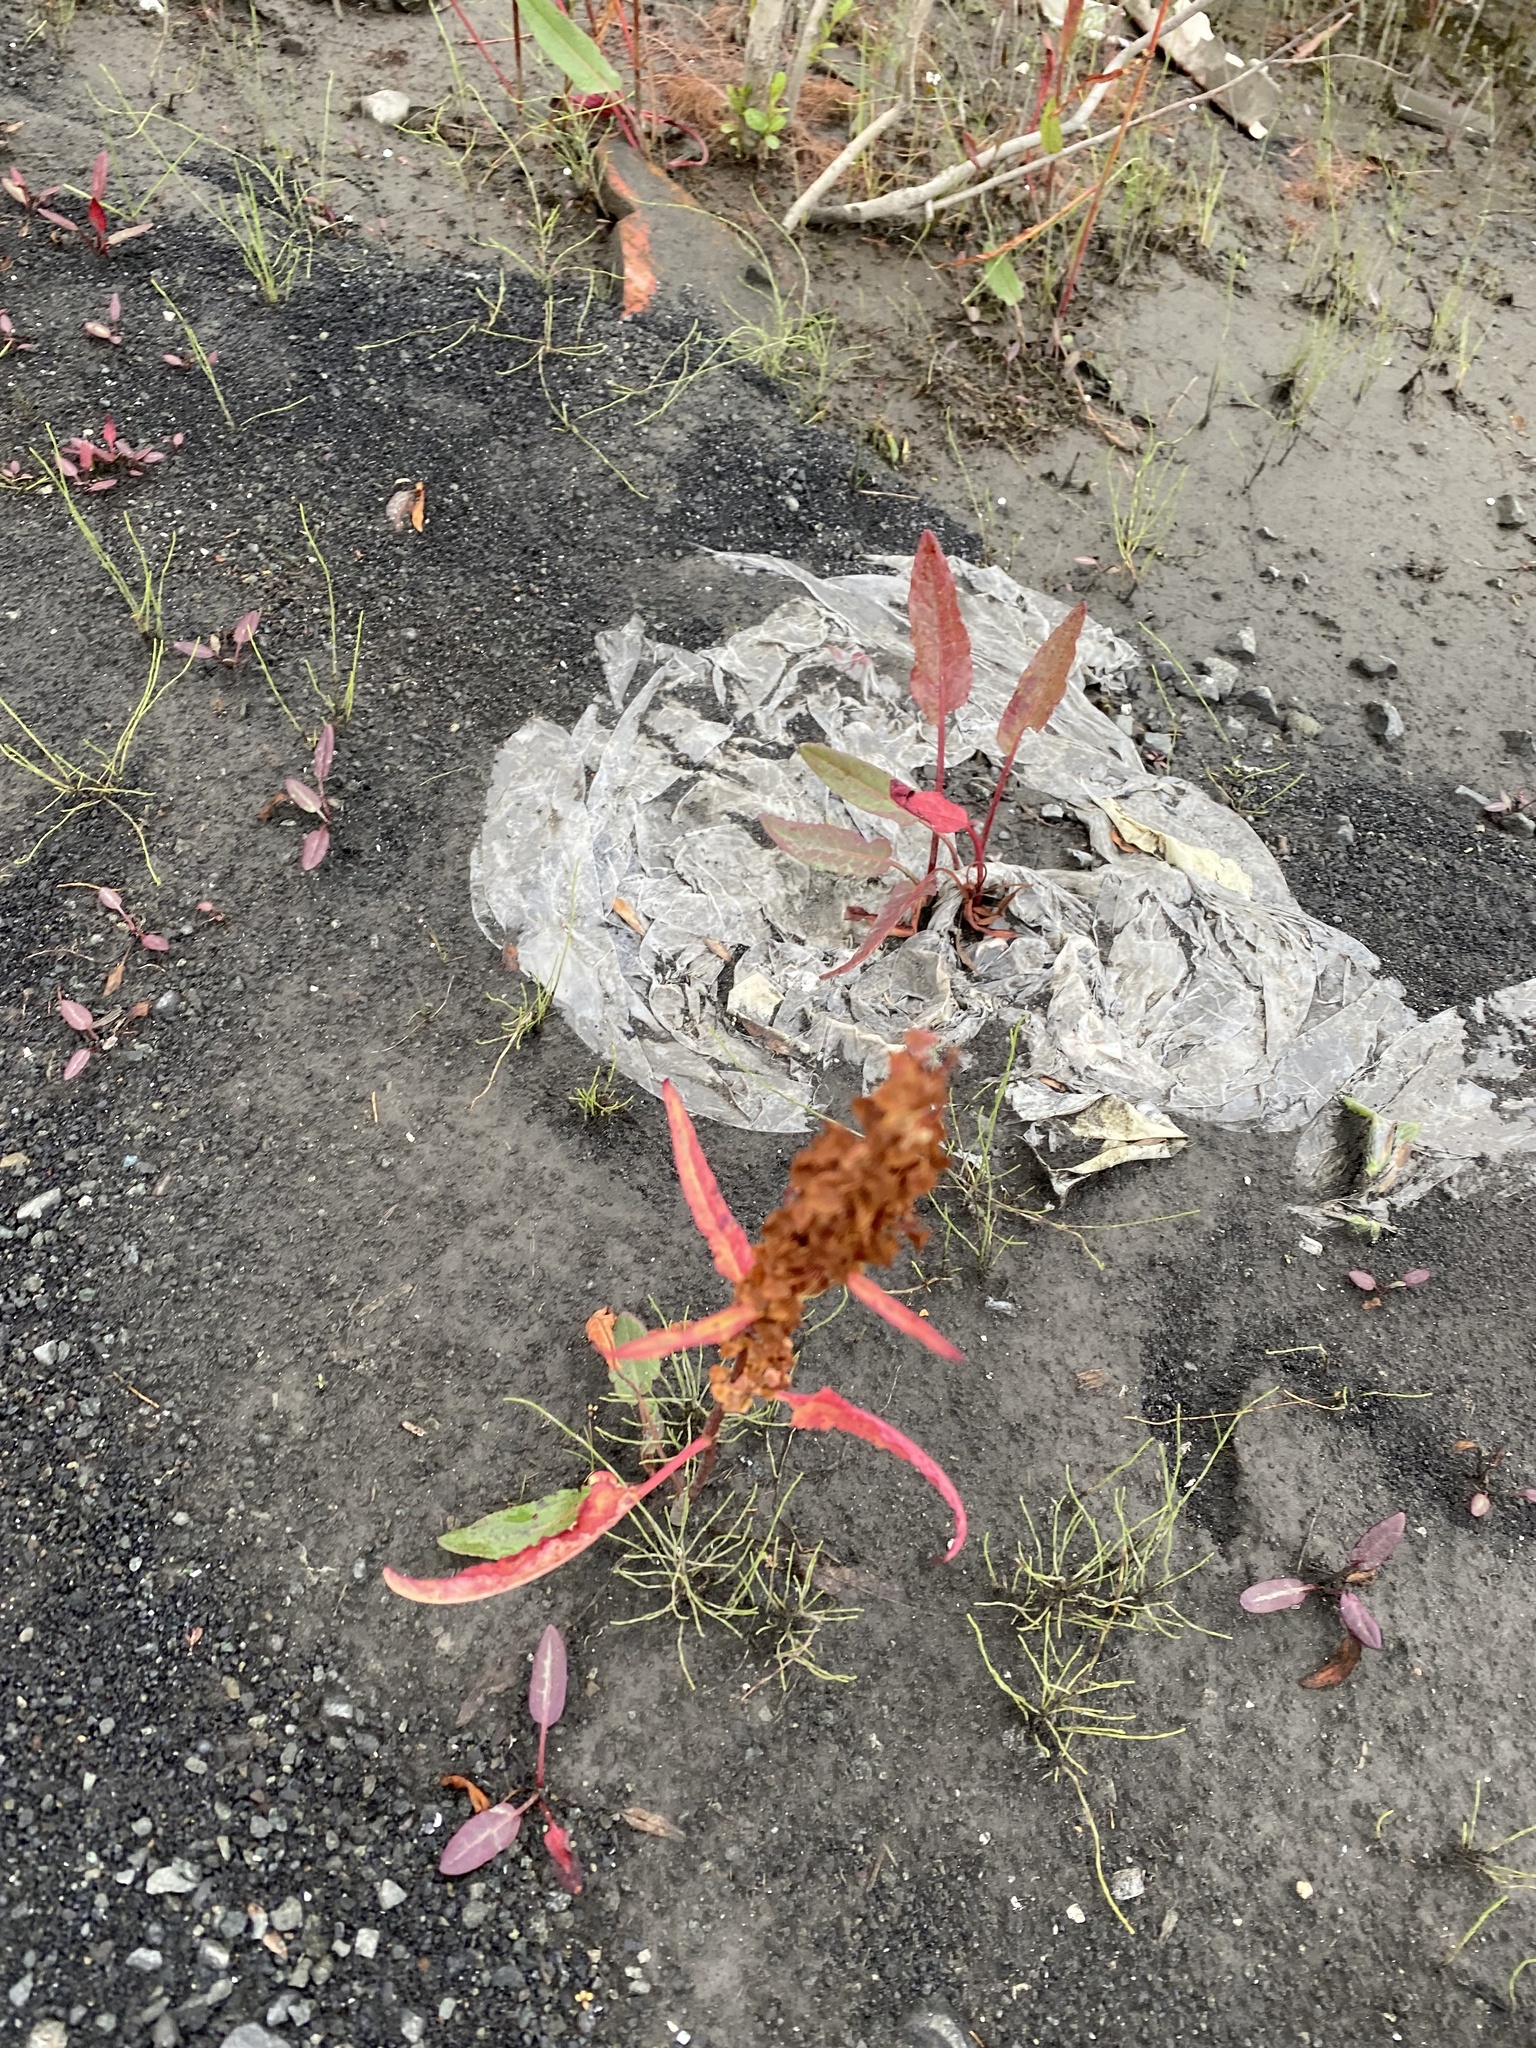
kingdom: Plantae
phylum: Tracheophyta
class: Magnoliopsida
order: Caryophyllales
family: Polygonaceae
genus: Rumex
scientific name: Rumex arcticus
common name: Arctic dock
